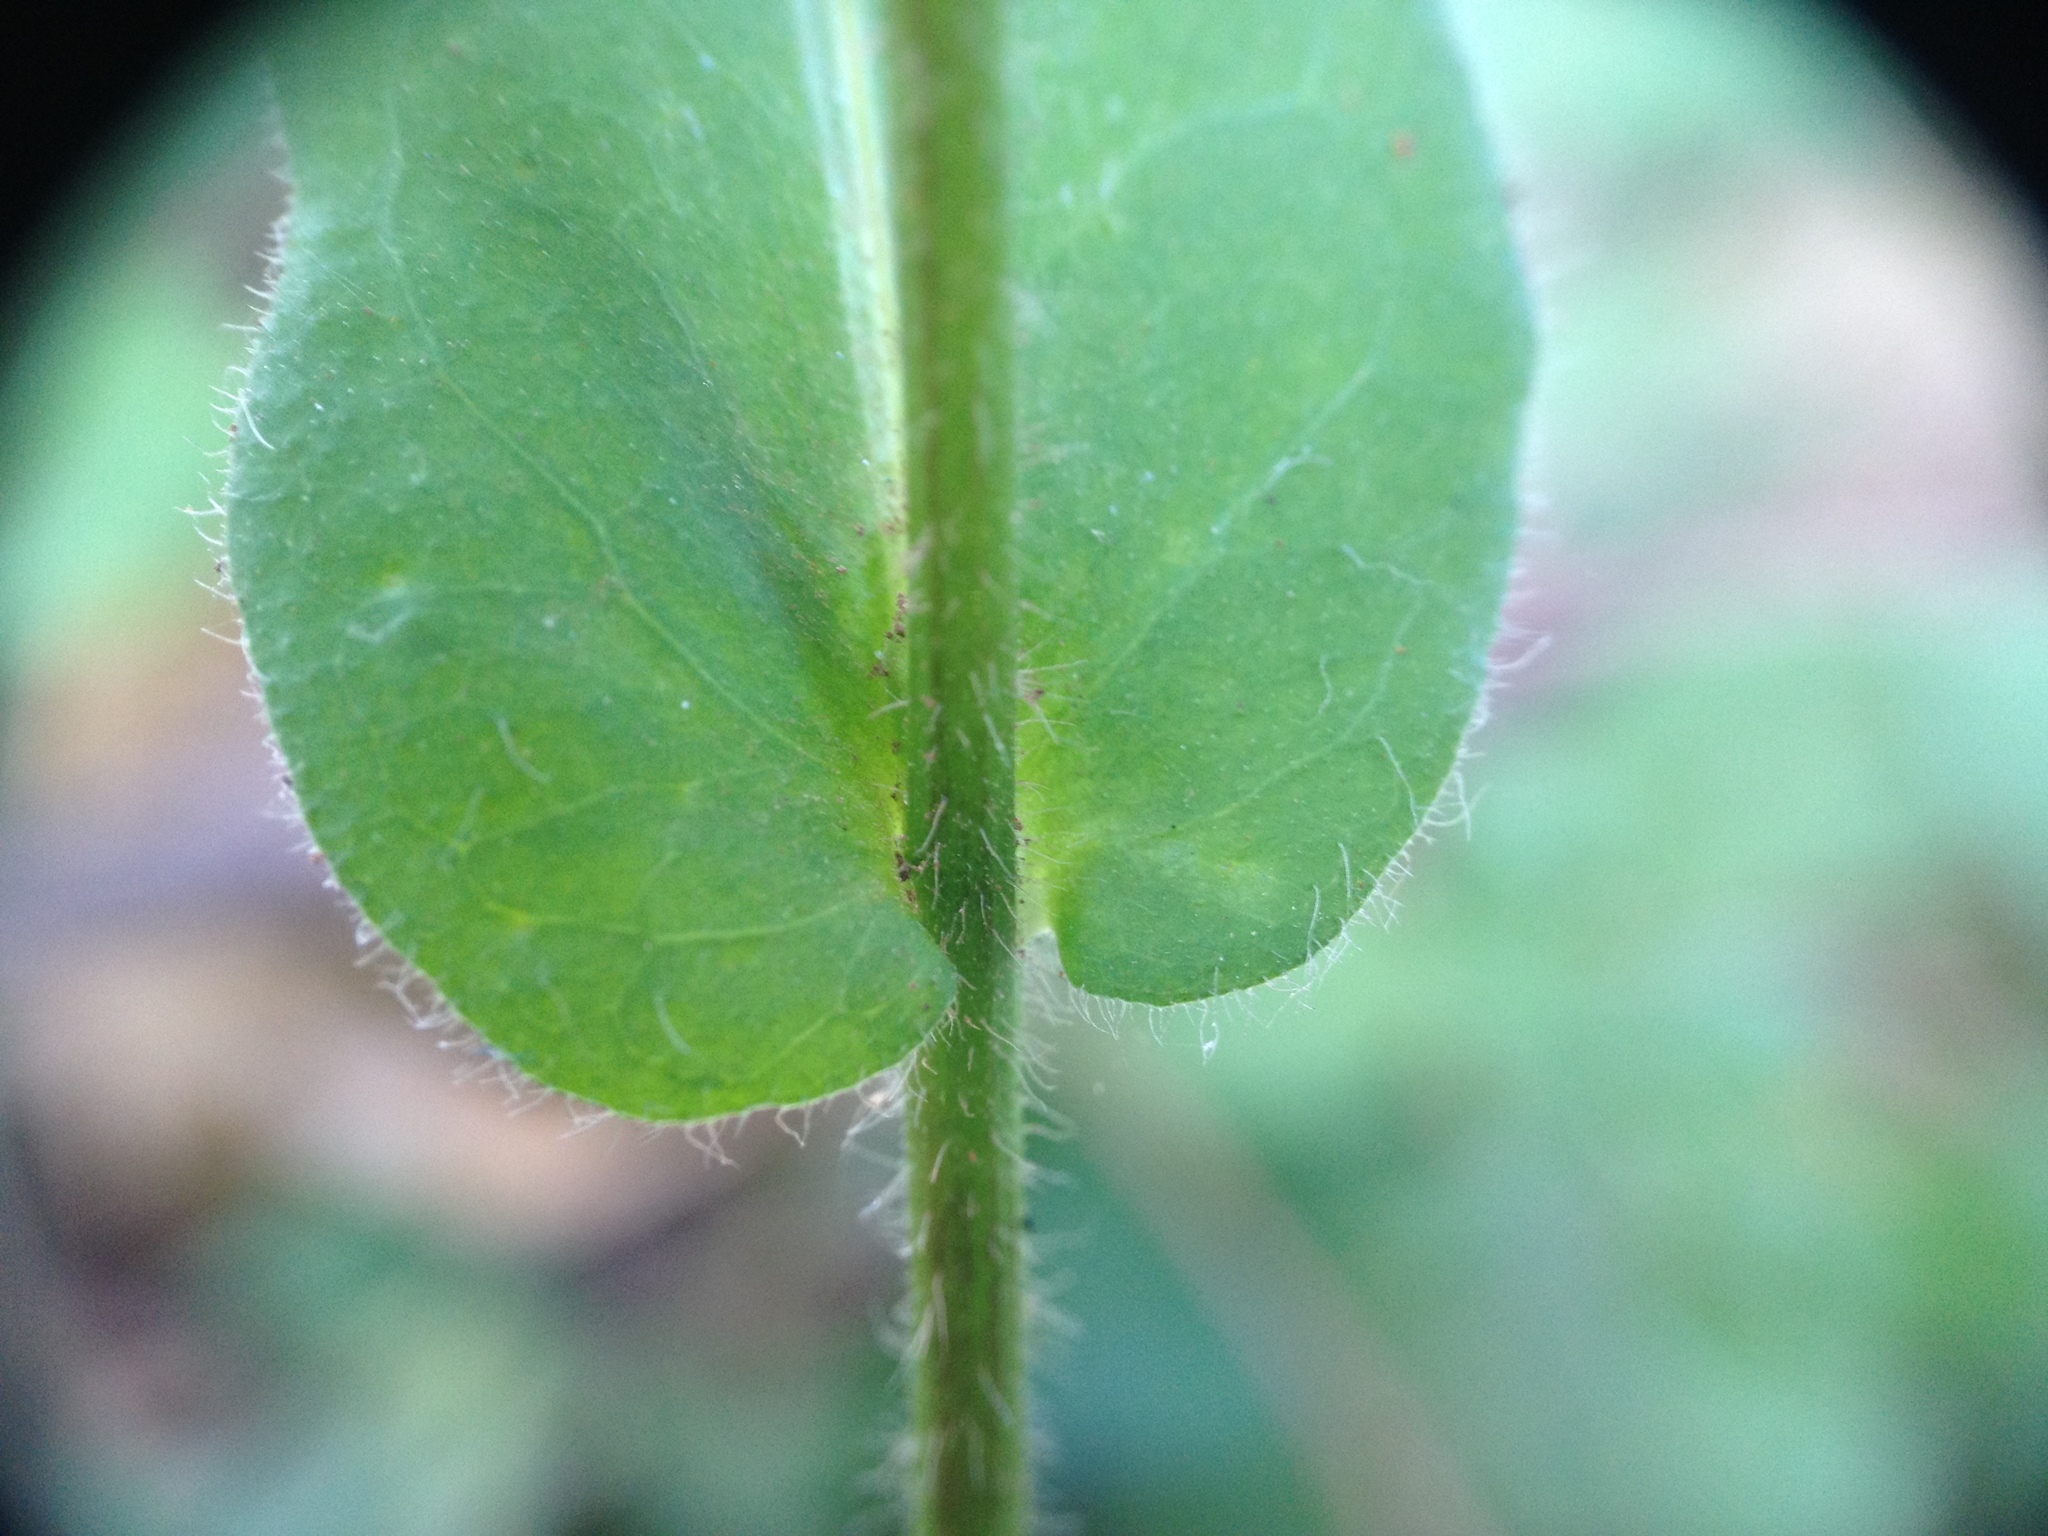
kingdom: Plantae
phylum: Tracheophyta
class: Magnoliopsida
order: Asterales
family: Asteraceae
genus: Exostigma
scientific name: Exostigma notobellidiastrum
